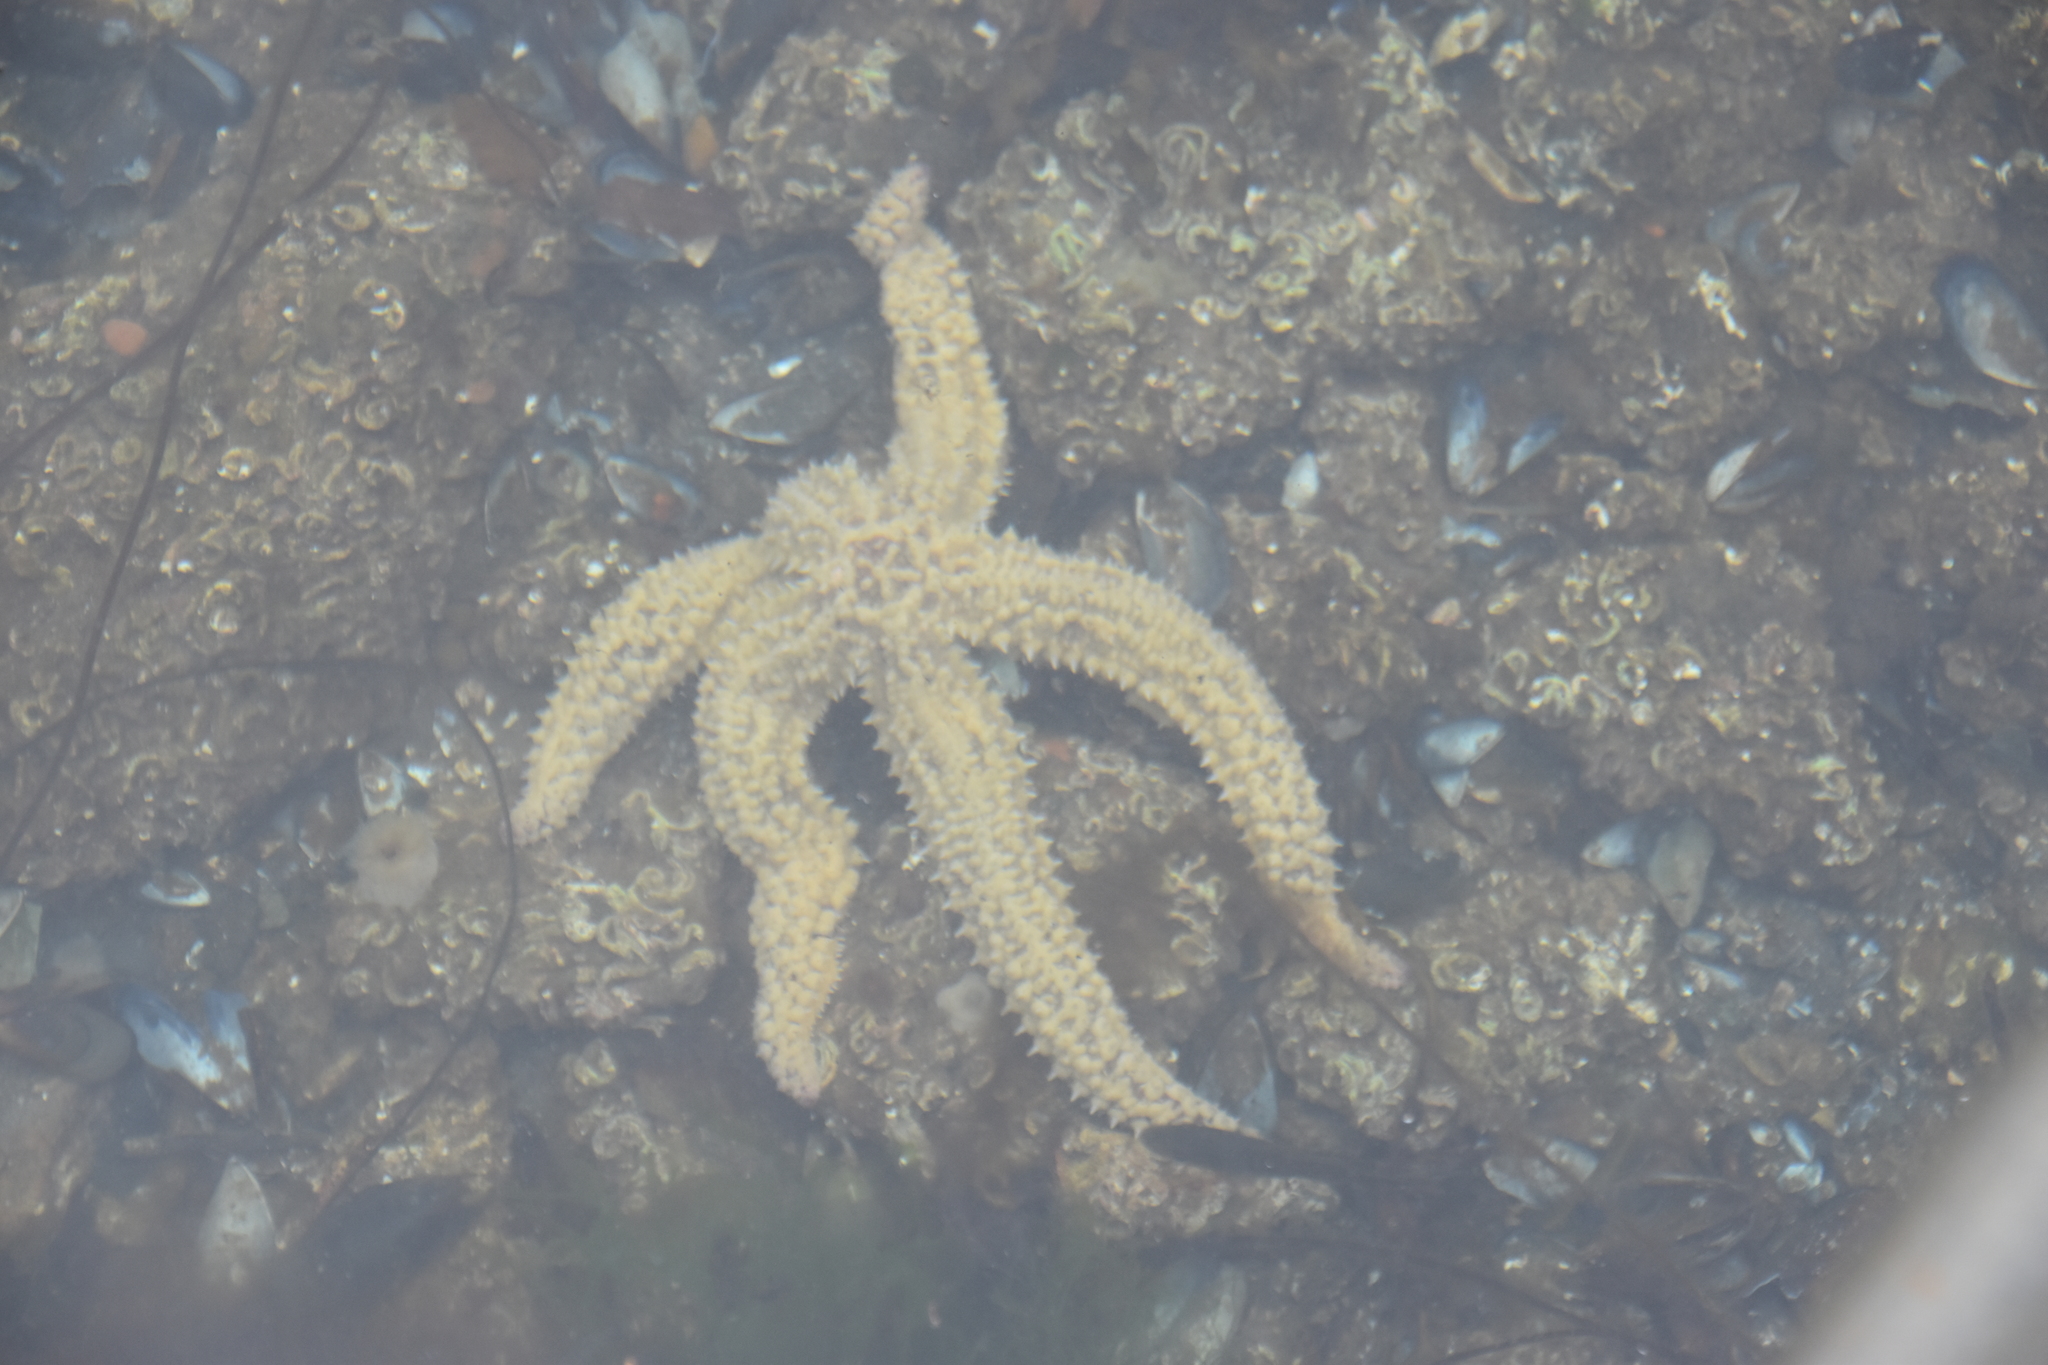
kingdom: Animalia
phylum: Echinodermata
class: Asteroidea
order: Forcipulatida
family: Asteriidae
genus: Marthasterias
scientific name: Marthasterias glacialis
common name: Spiny starfish
